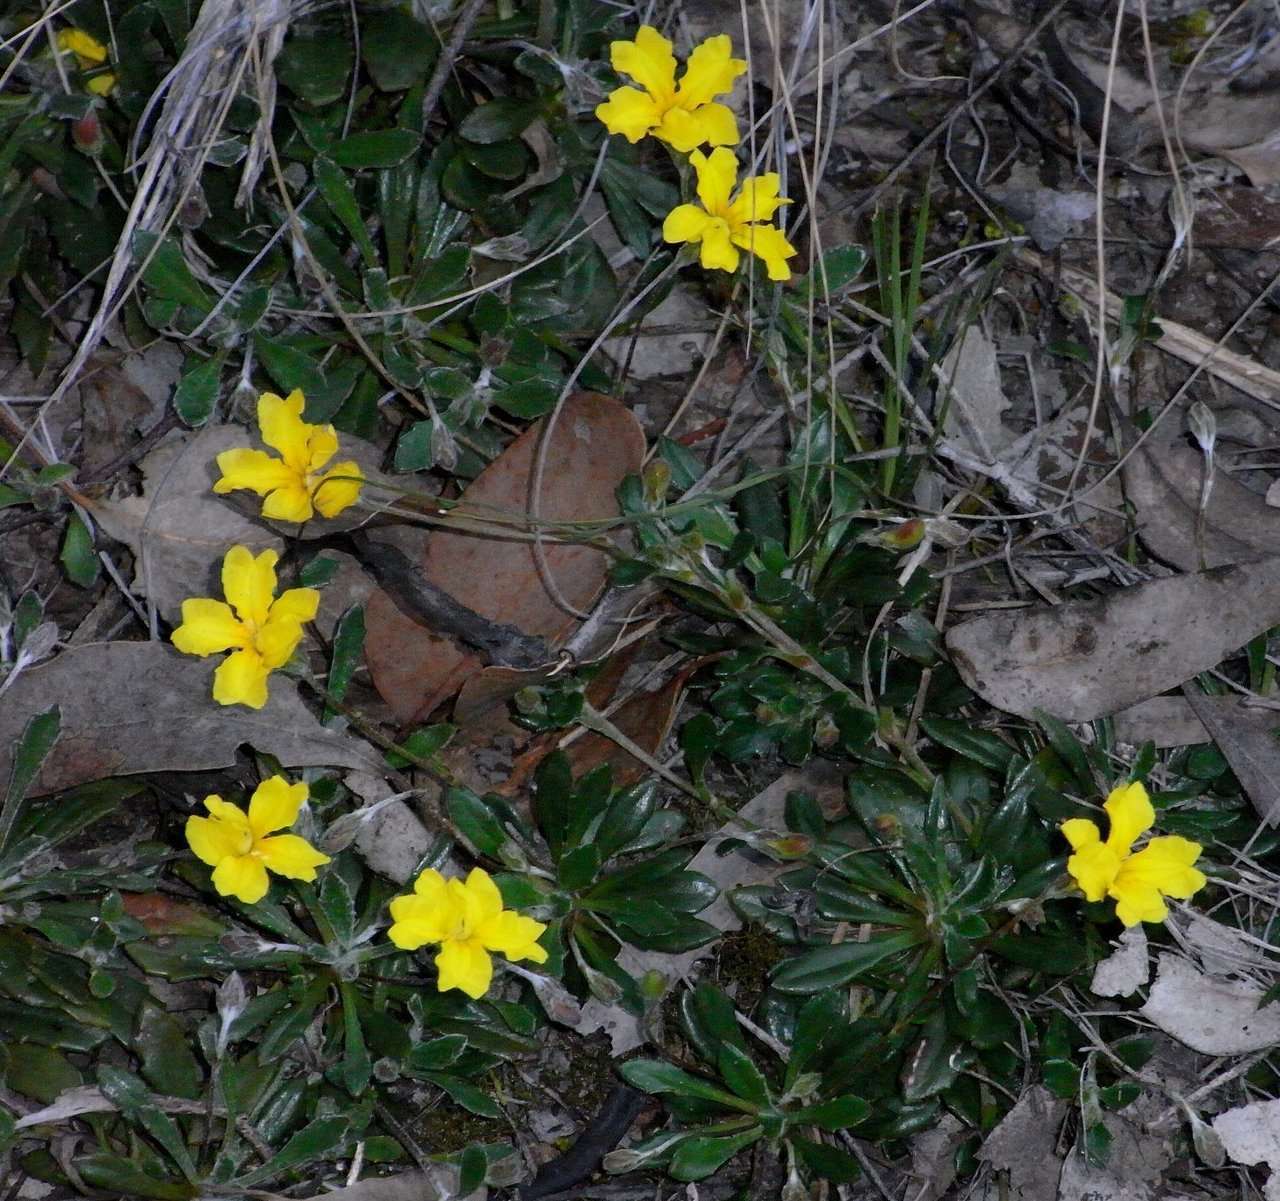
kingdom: Plantae
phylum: Tracheophyta
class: Magnoliopsida
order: Asterales
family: Goodeniaceae
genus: Goodenia
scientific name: Goodenia blackiana
